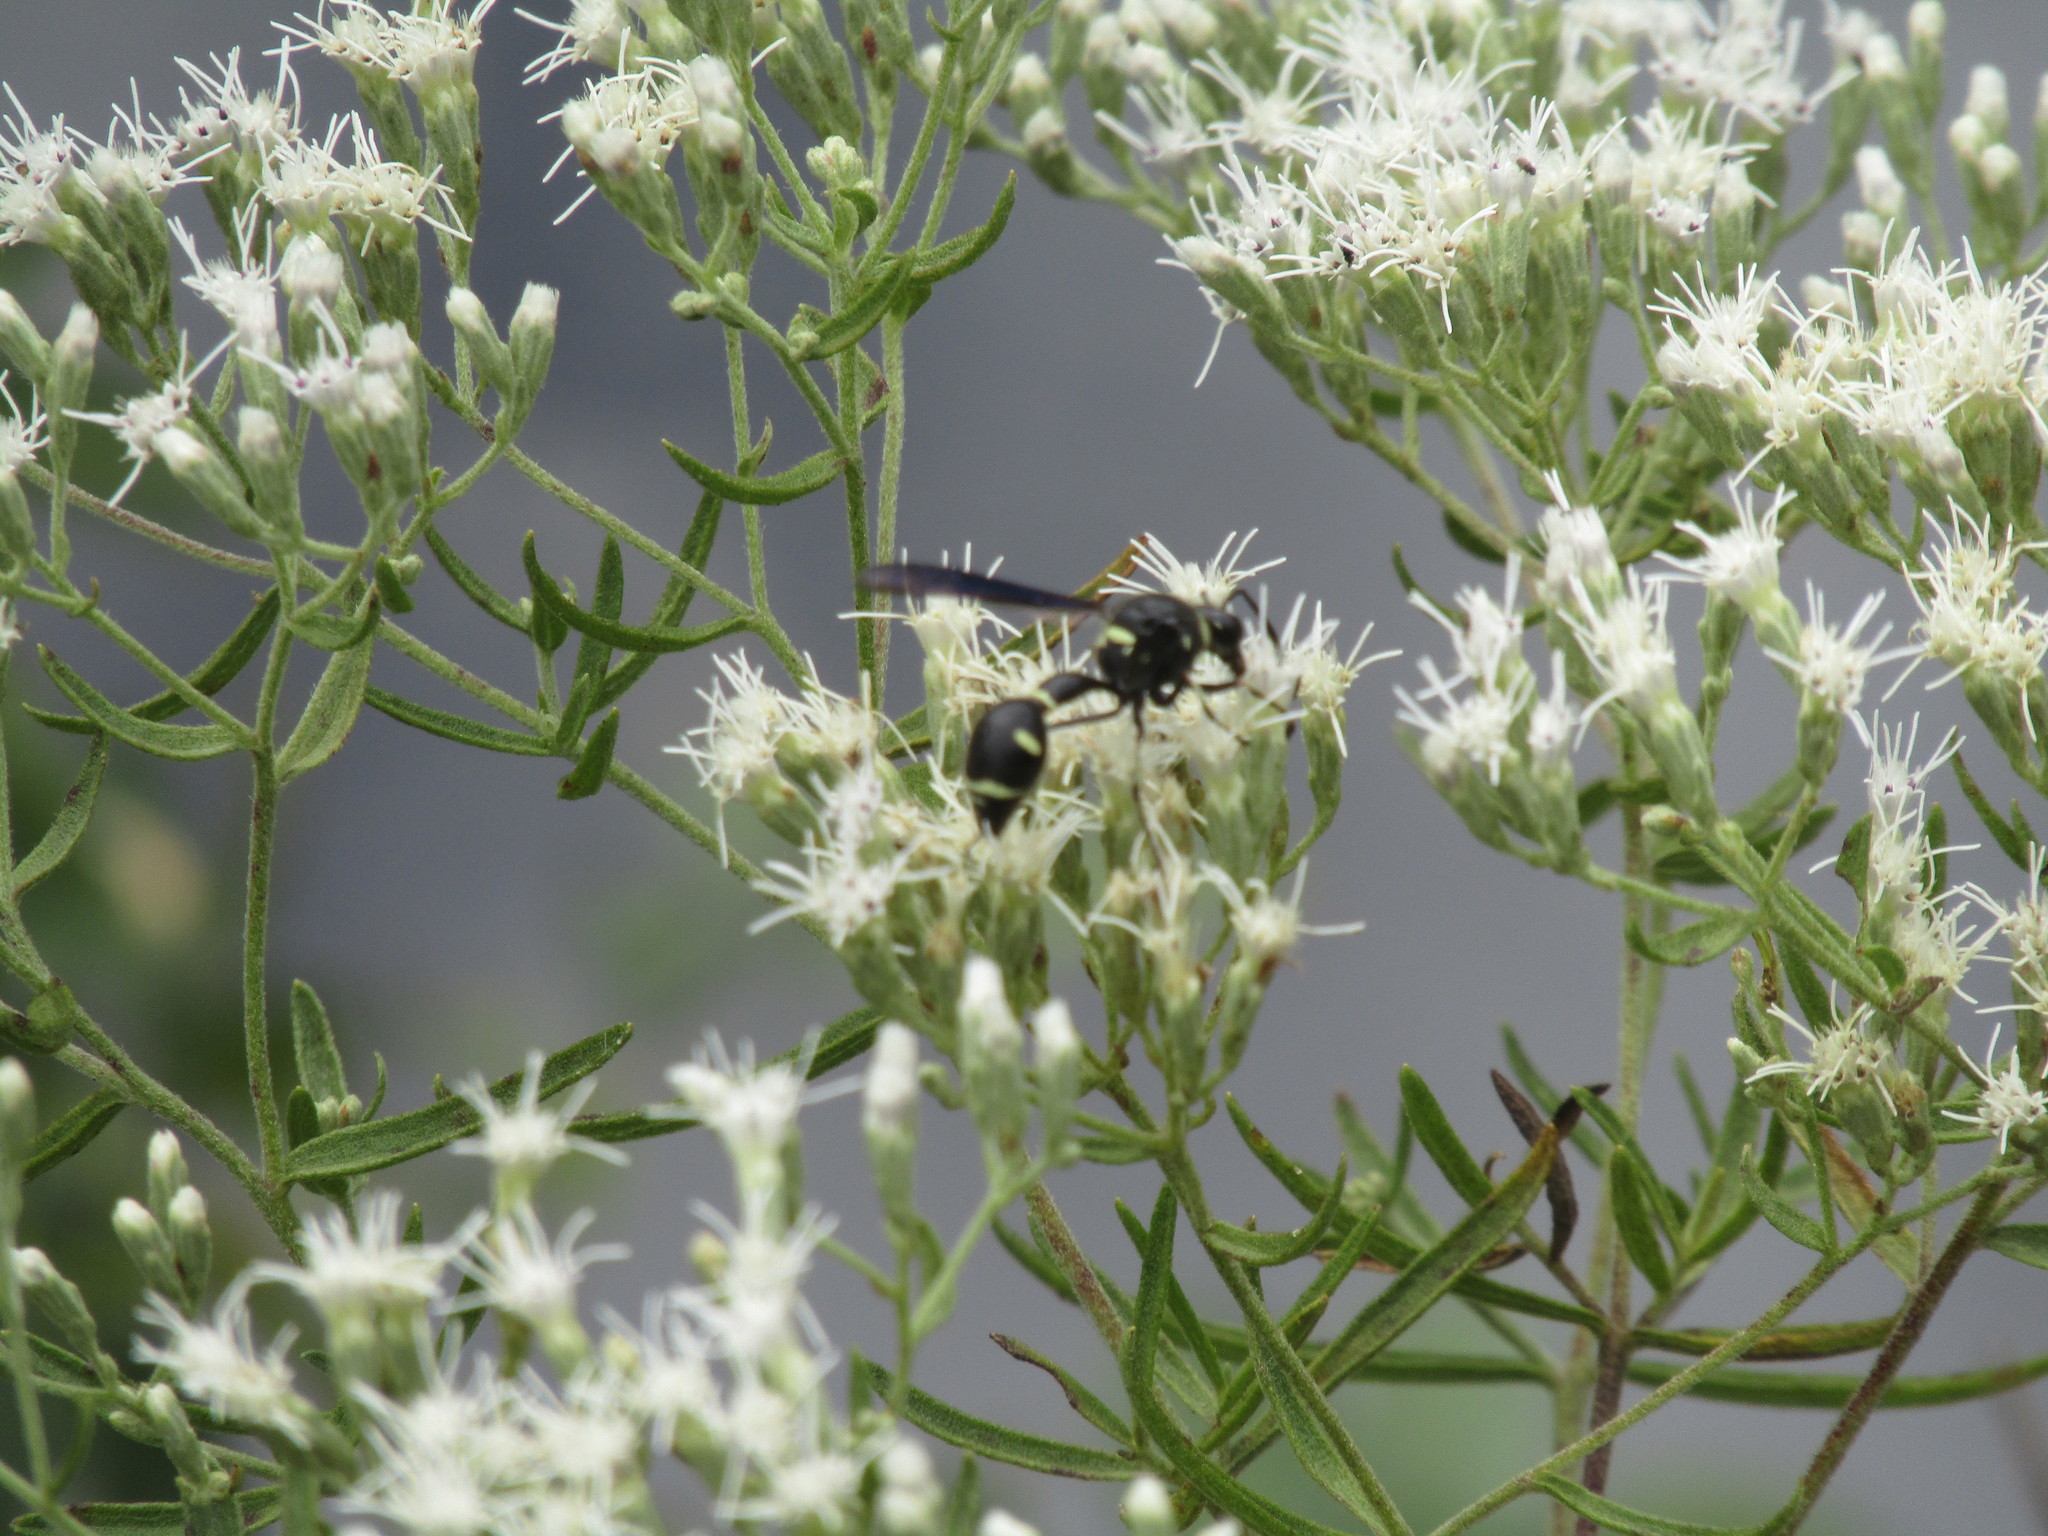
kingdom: Animalia
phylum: Arthropoda
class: Insecta
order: Hymenoptera
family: Vespidae
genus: Eumenes
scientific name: Eumenes fraternus
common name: Fraternal potter wasp
